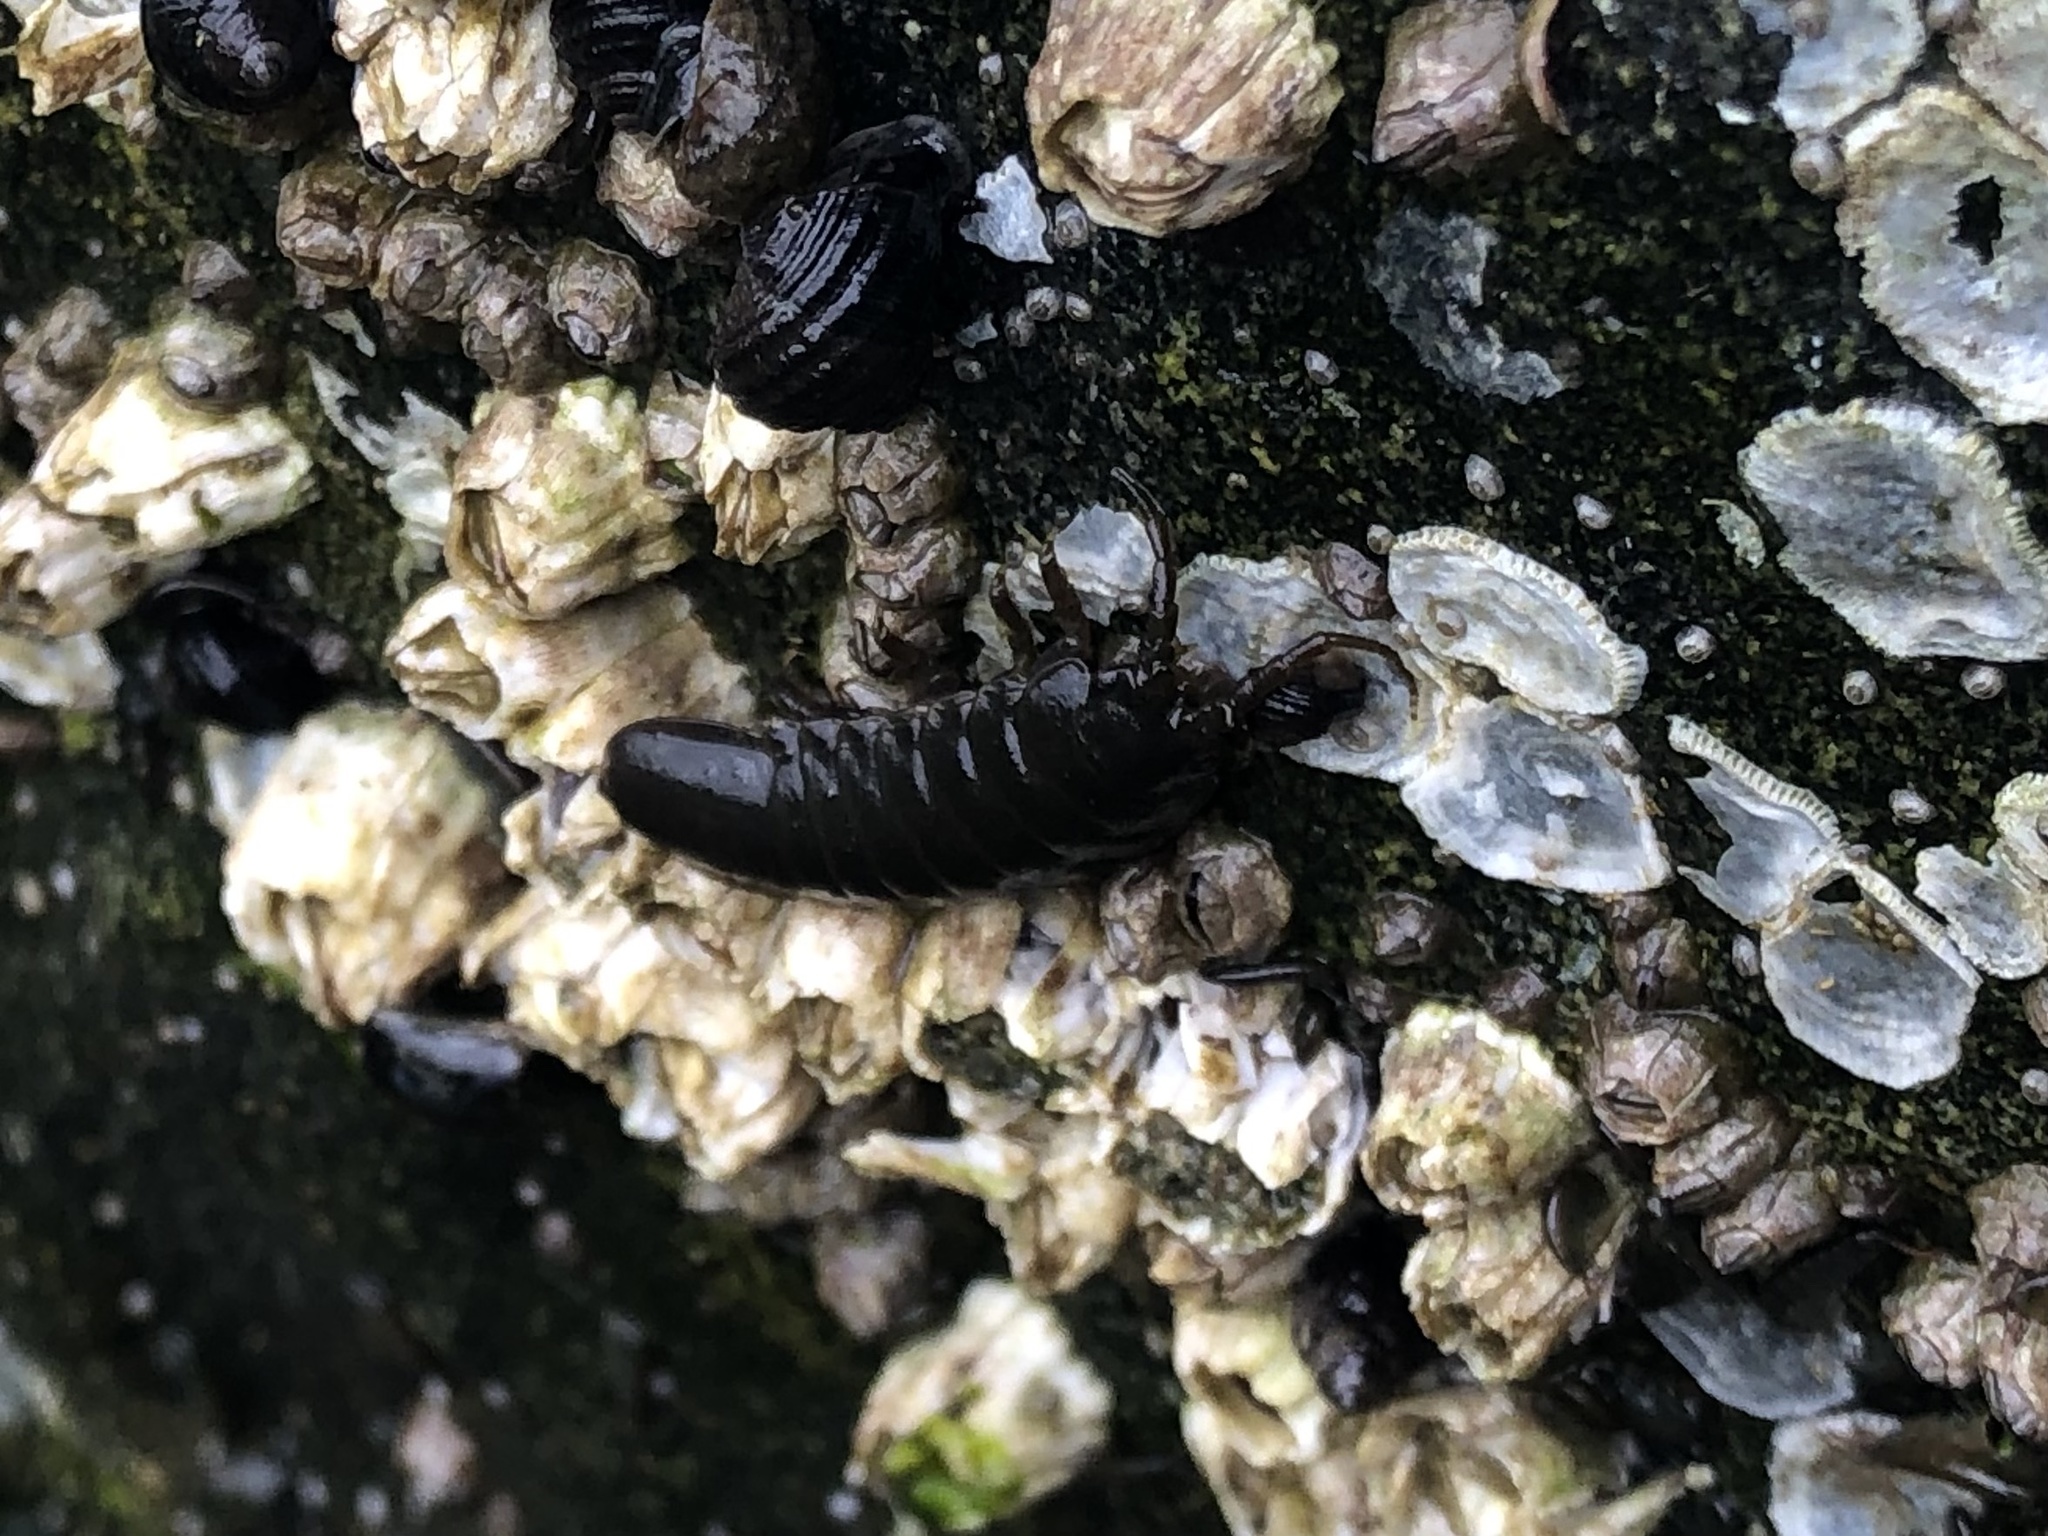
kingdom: Animalia
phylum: Arthropoda
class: Malacostraca
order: Isopoda
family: Idoteidae
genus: Pentidotea
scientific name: Pentidotea wosnesenskii
